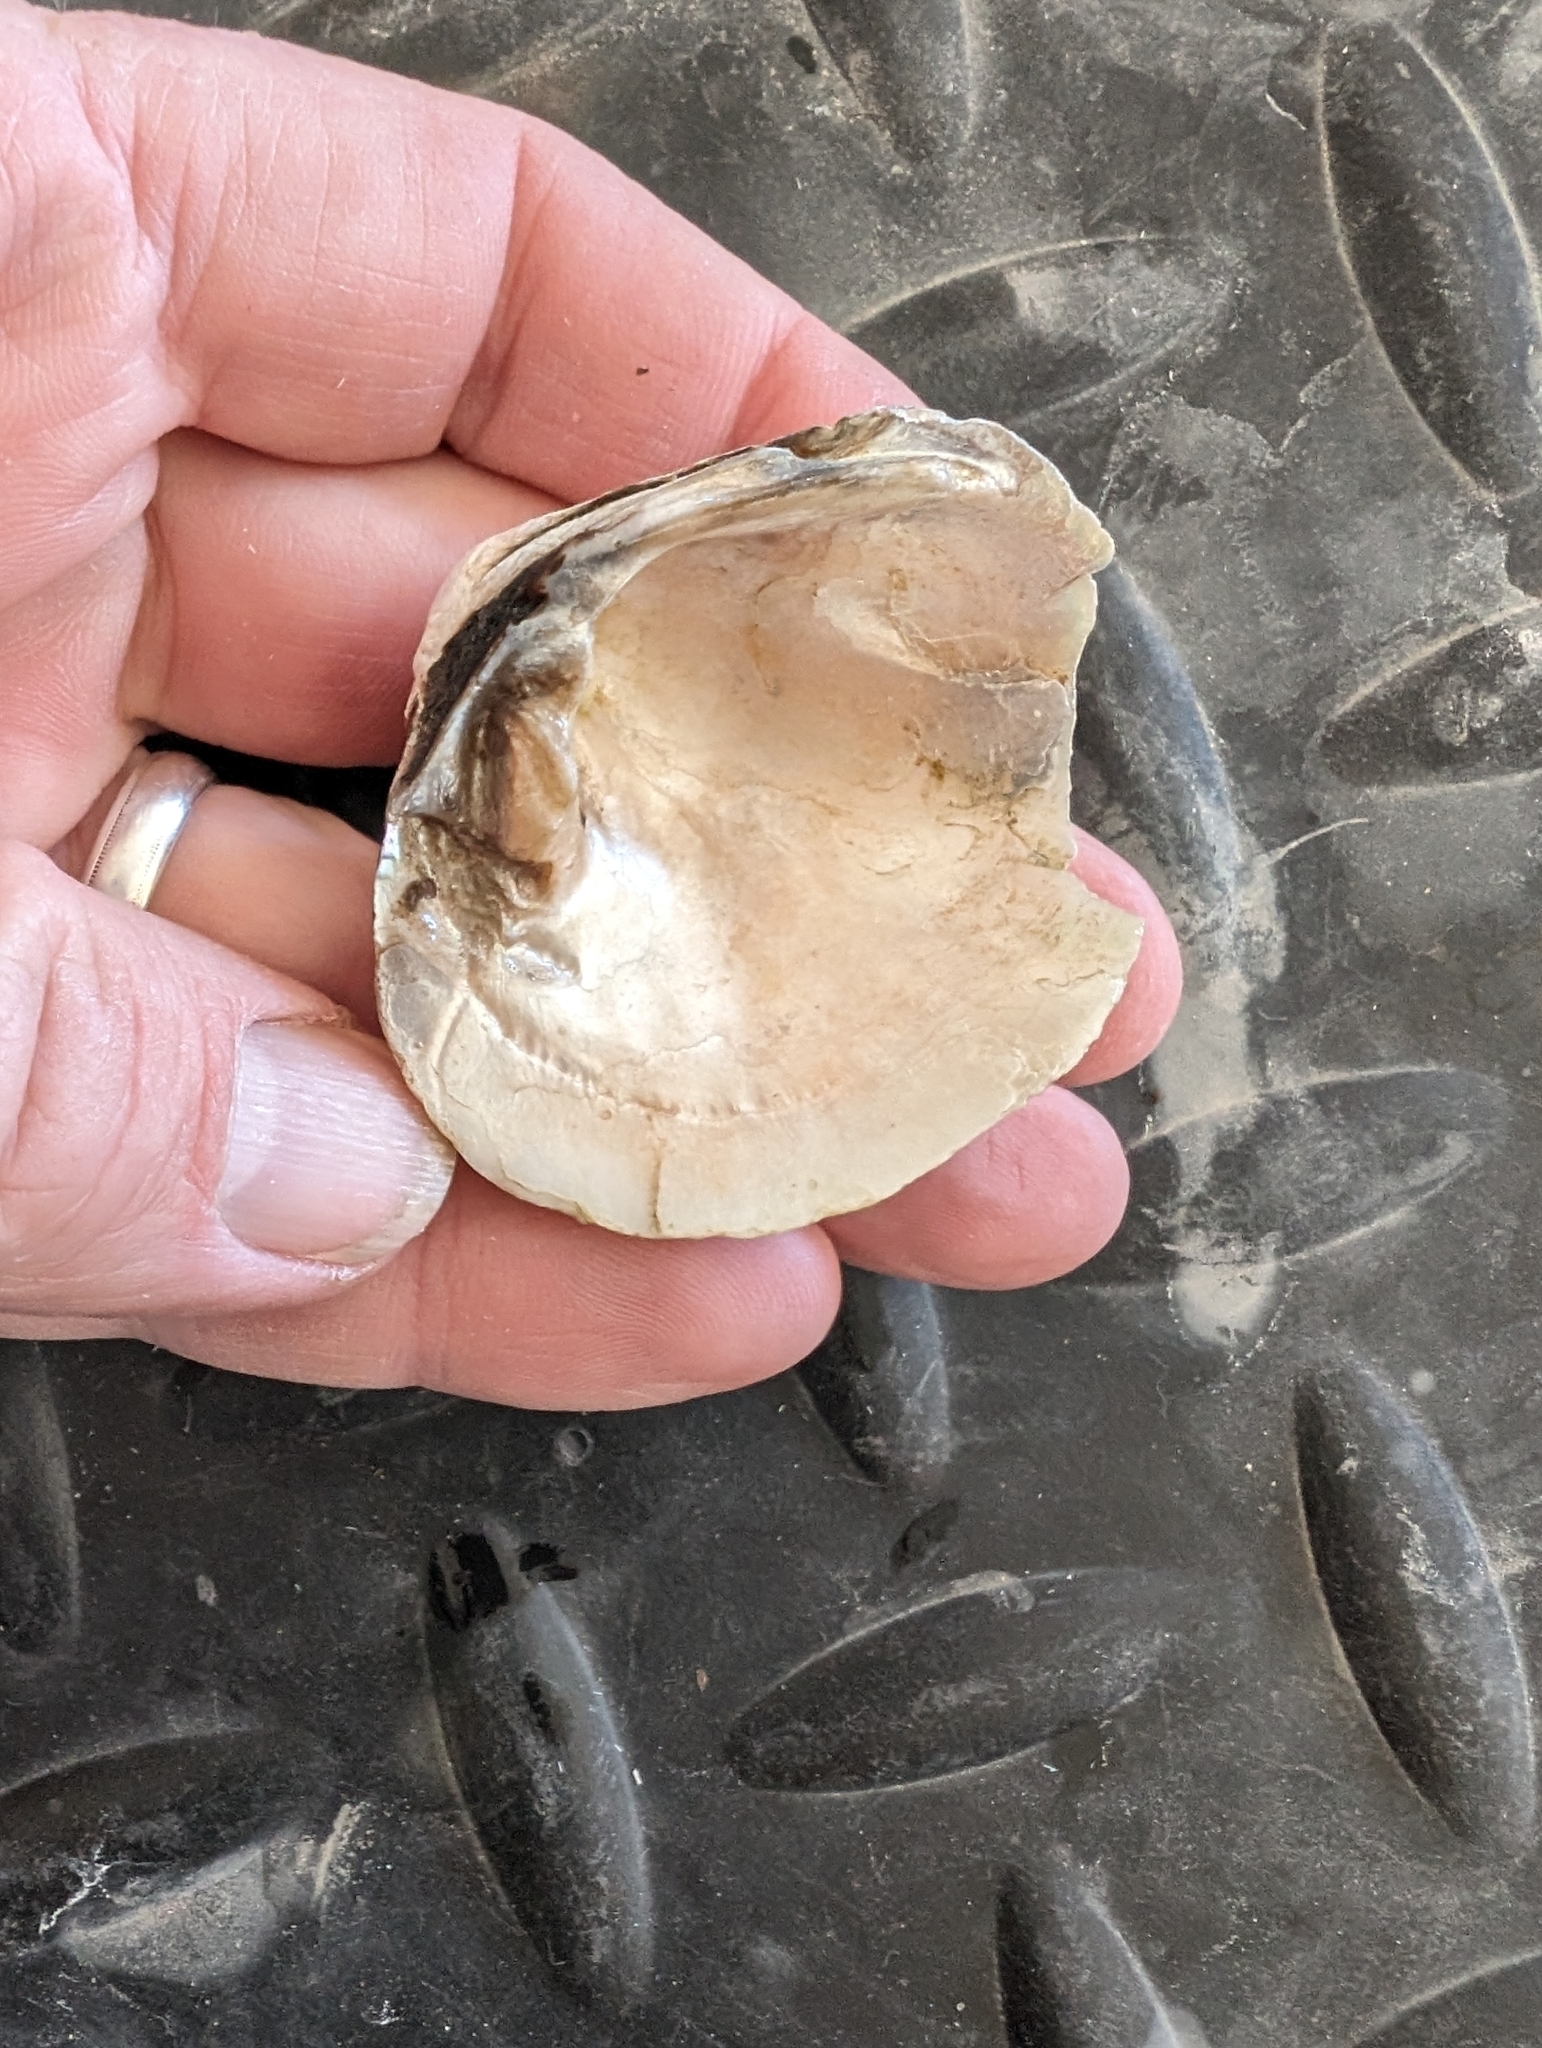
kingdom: Animalia
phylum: Mollusca
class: Bivalvia
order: Unionida
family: Unionidae
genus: Cyclonaias
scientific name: Cyclonaias pustulosa
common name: Pimpleback
